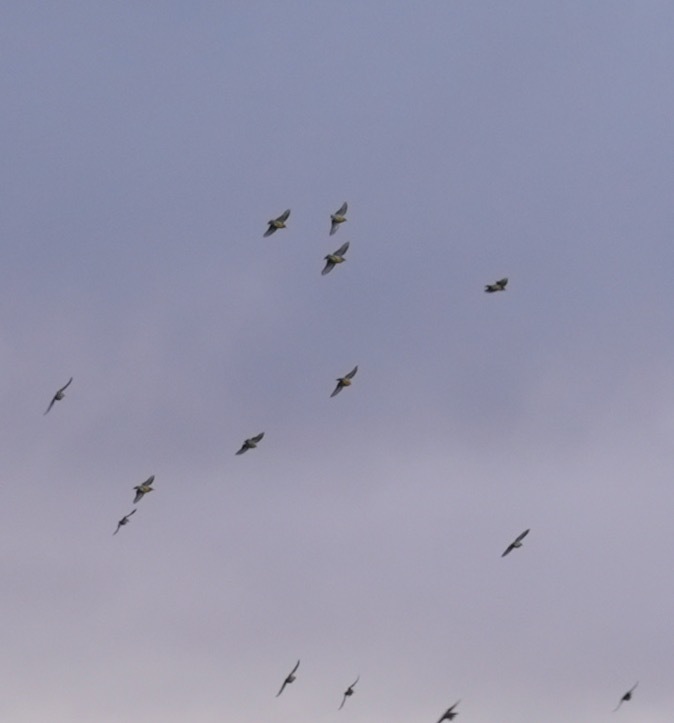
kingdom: Animalia
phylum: Chordata
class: Aves
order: Passeriformes
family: Icteridae
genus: Sturnella
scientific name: Sturnella neglecta
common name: Western meadowlark
